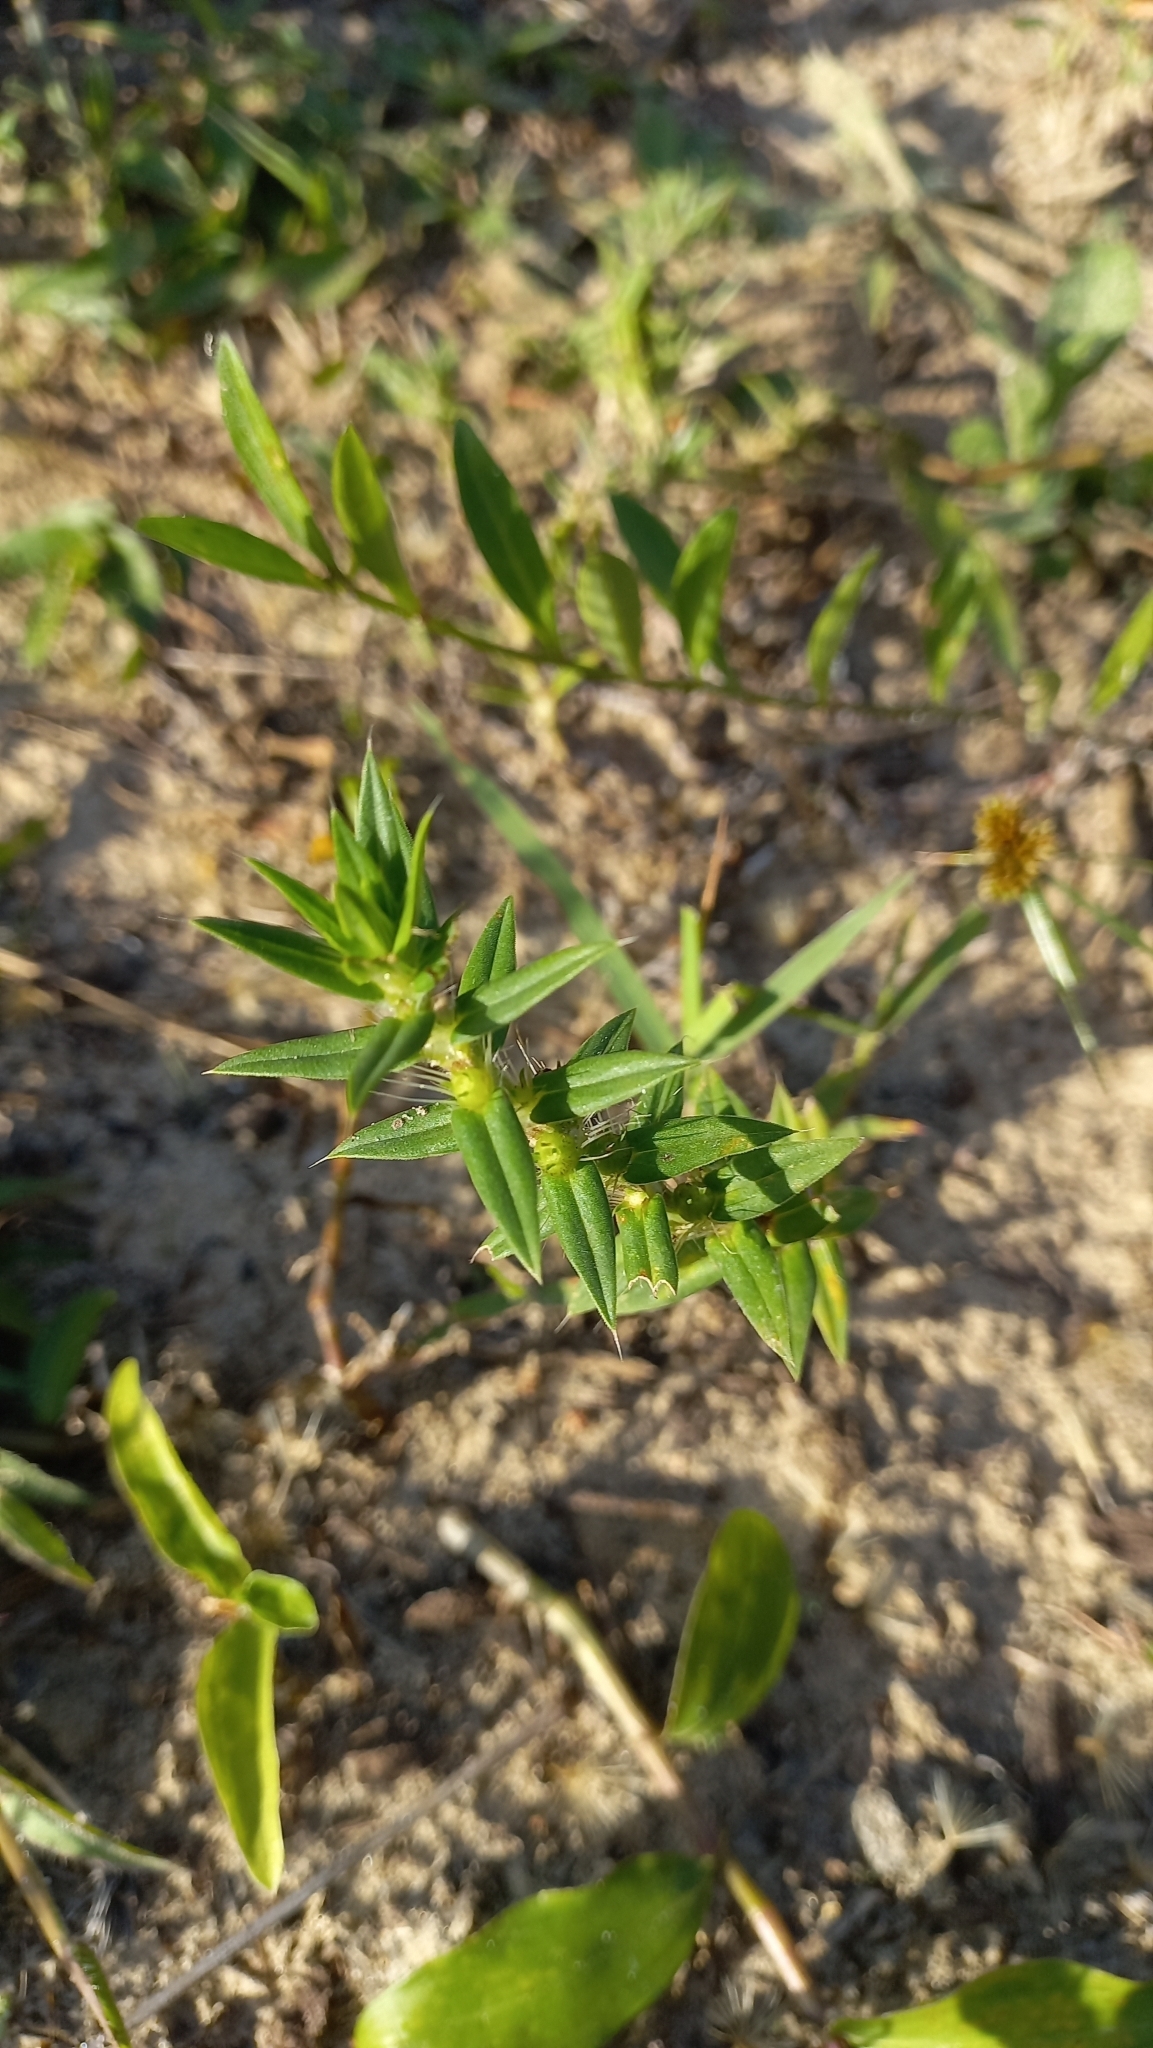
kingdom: Plantae
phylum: Tracheophyta
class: Magnoliopsida
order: Gentianales
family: Rubiaceae
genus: Hexasepalum
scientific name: Hexasepalum apiculatum
